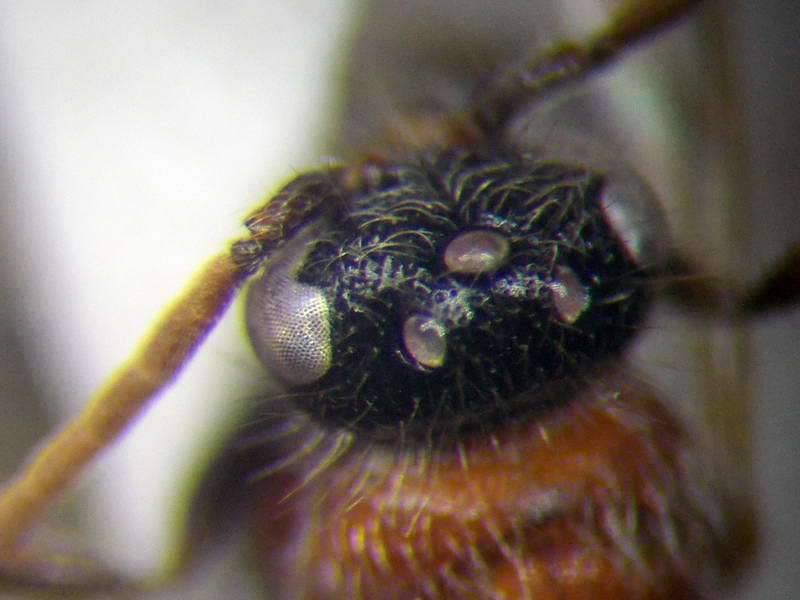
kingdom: Animalia
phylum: Arthropoda
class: Insecta
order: Hymenoptera
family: Mutillidae
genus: Smicromyrme
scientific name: Smicromyrme rufipes
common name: Small velvet ant
